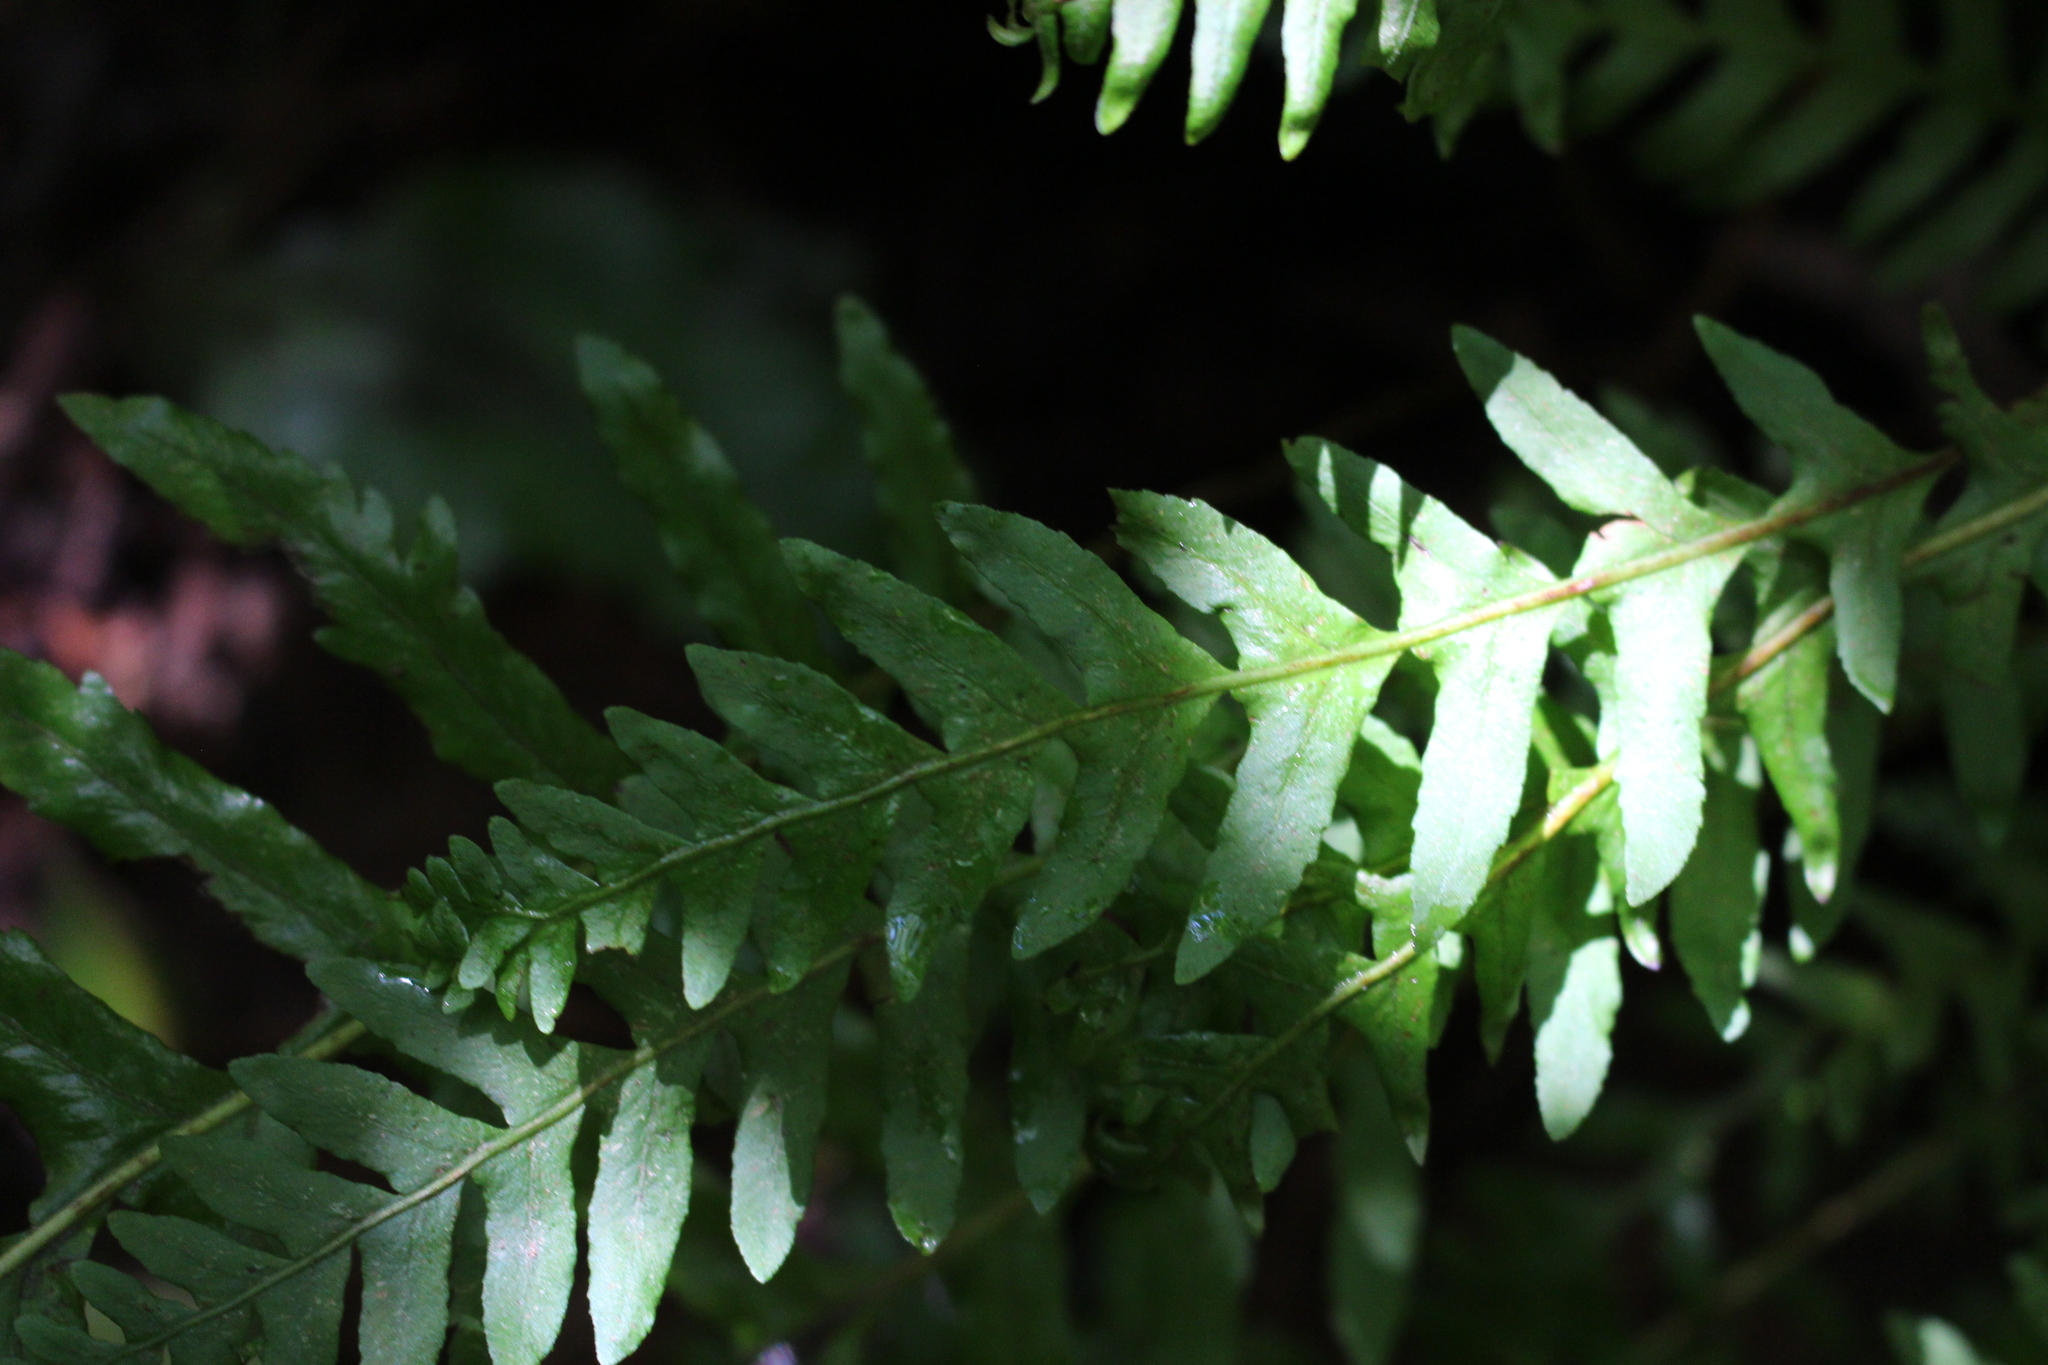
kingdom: Plantae
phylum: Tracheophyta
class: Polypodiopsida
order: Polypodiales
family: Polypodiaceae
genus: Polypodium
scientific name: Polypodium vulgare
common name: Common polypody
